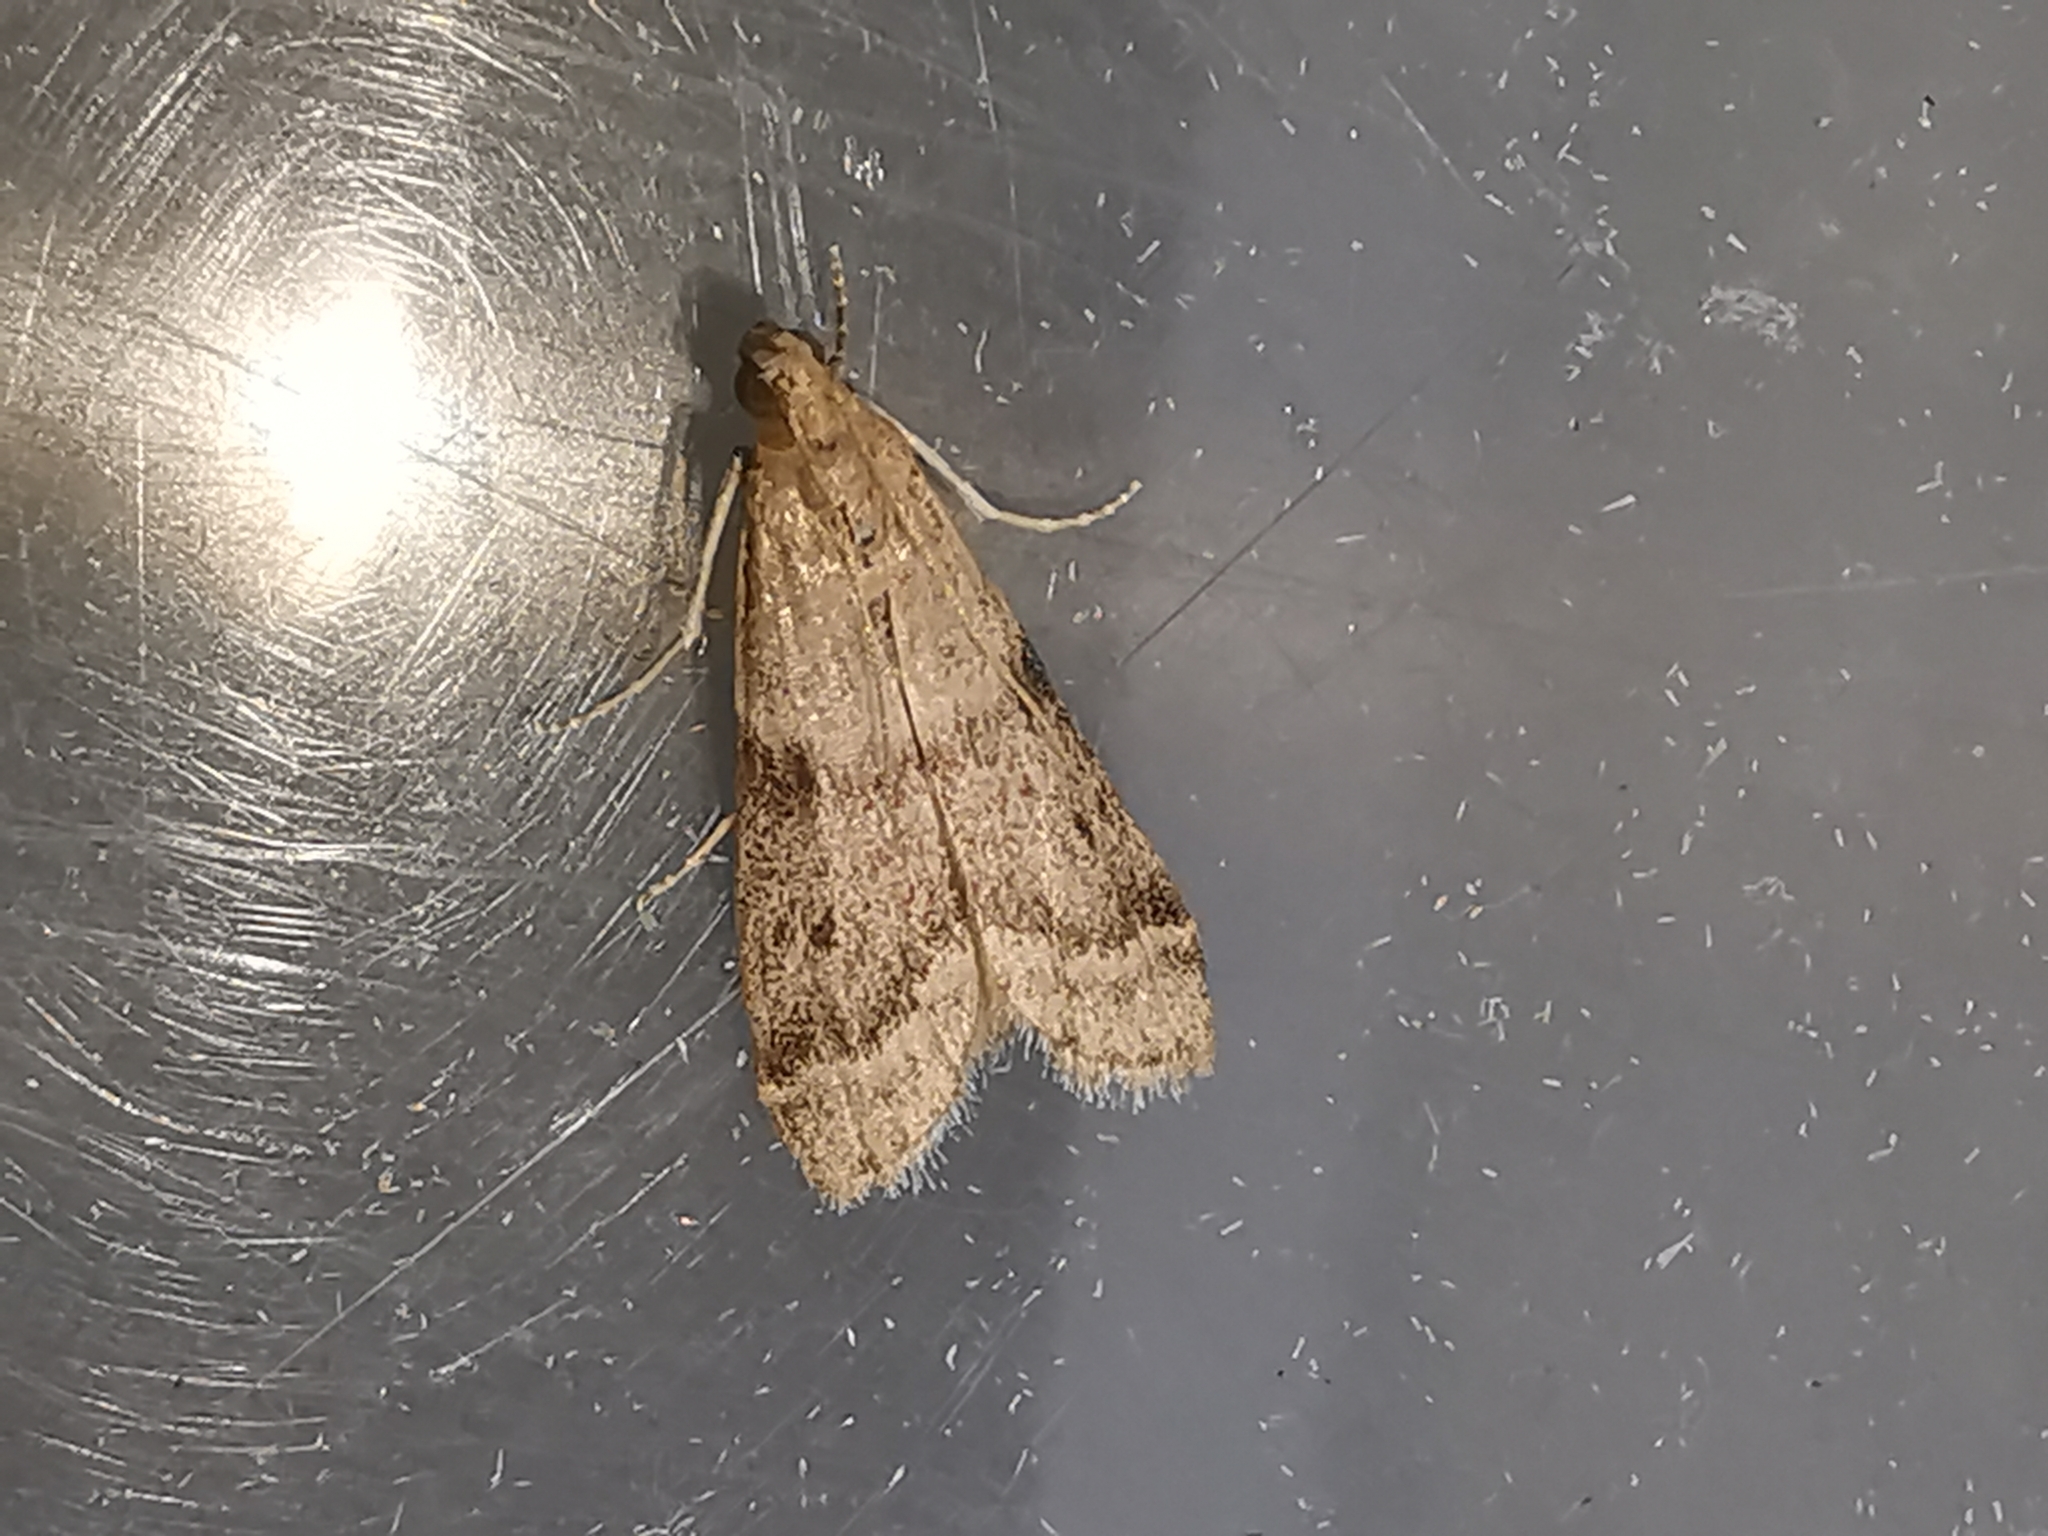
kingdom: Animalia
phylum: Arthropoda
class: Insecta
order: Lepidoptera
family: Pyralidae
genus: Ephestia
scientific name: Ephestia elutella
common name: Cacao moth
